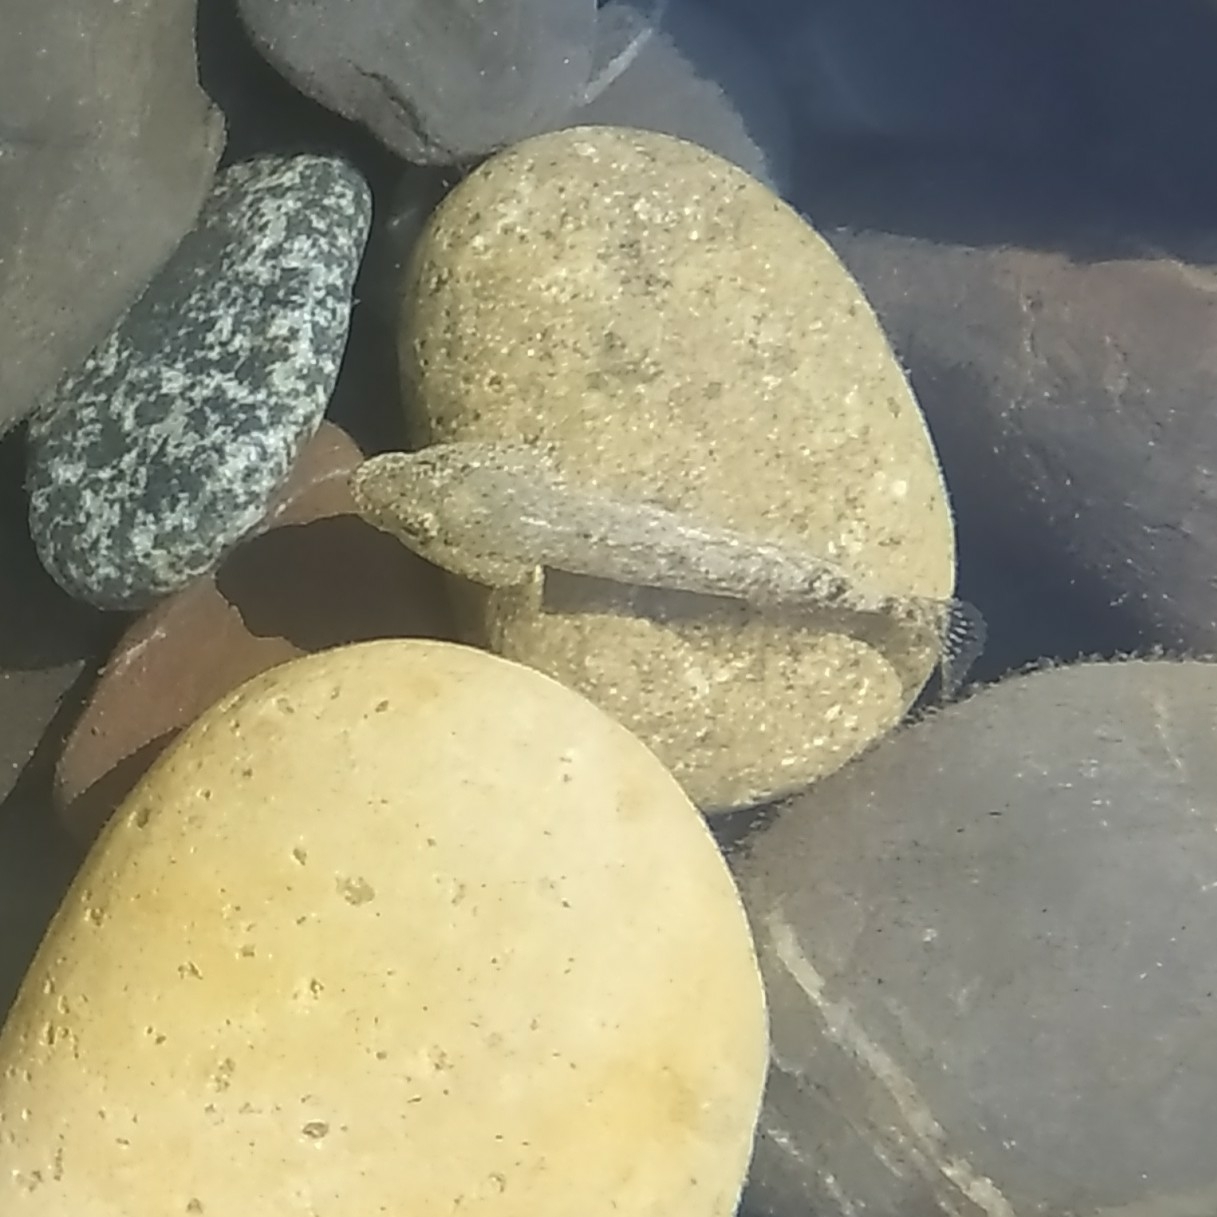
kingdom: Animalia
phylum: Chordata
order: Perciformes
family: Gobiidae
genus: Gobius
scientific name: Gobius cobitis
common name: Giant goby
